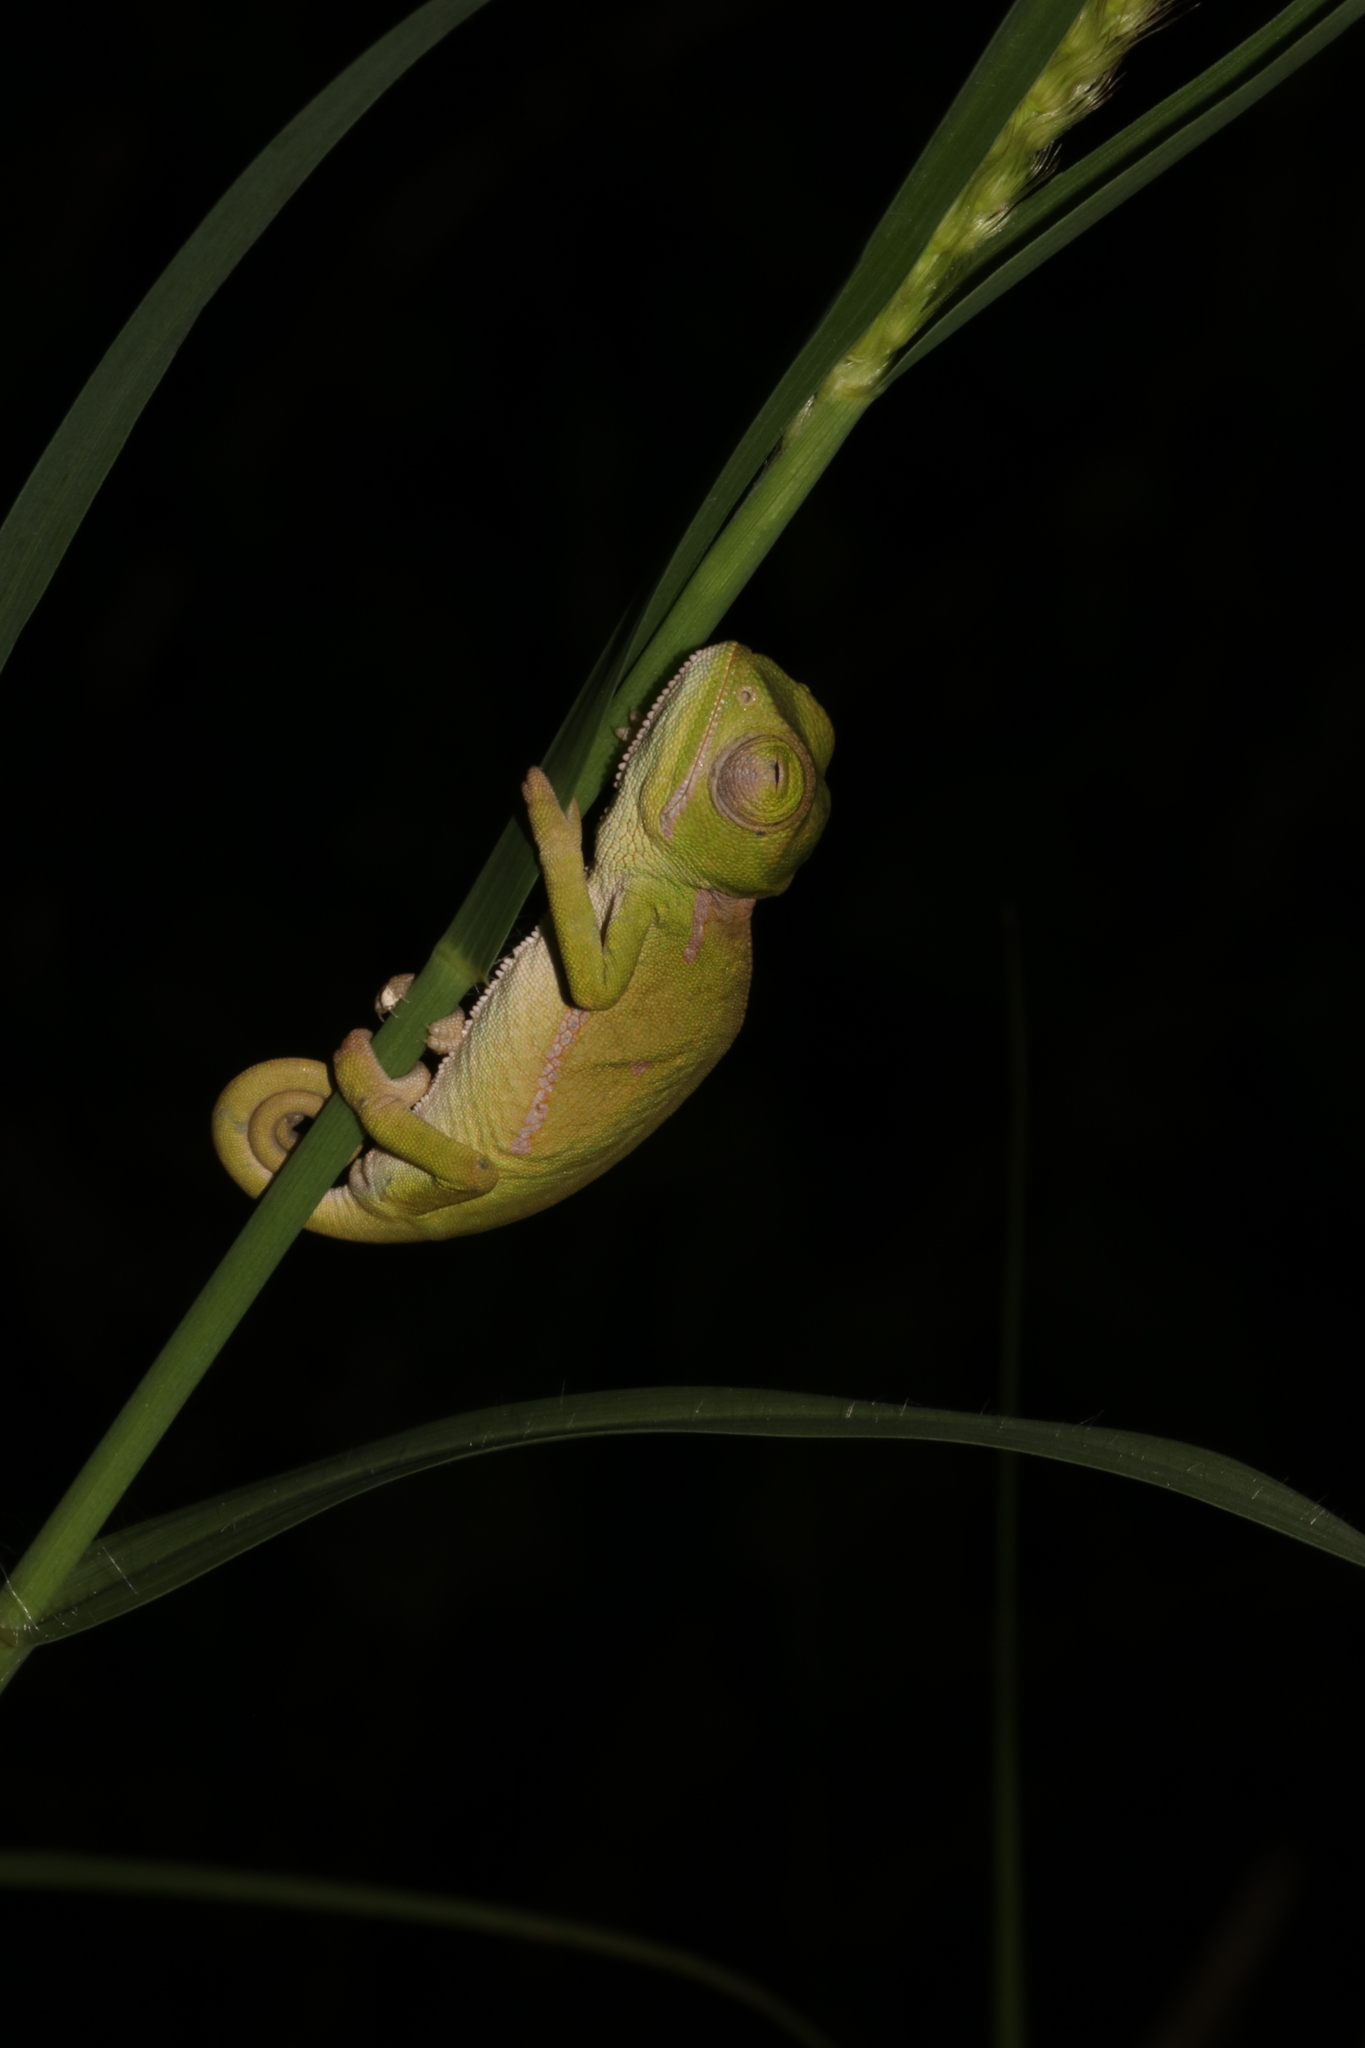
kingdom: Animalia
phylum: Chordata
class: Squamata
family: Chamaeleonidae
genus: Chamaeleo
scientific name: Chamaeleo dilepis
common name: Flapneck chameleon
